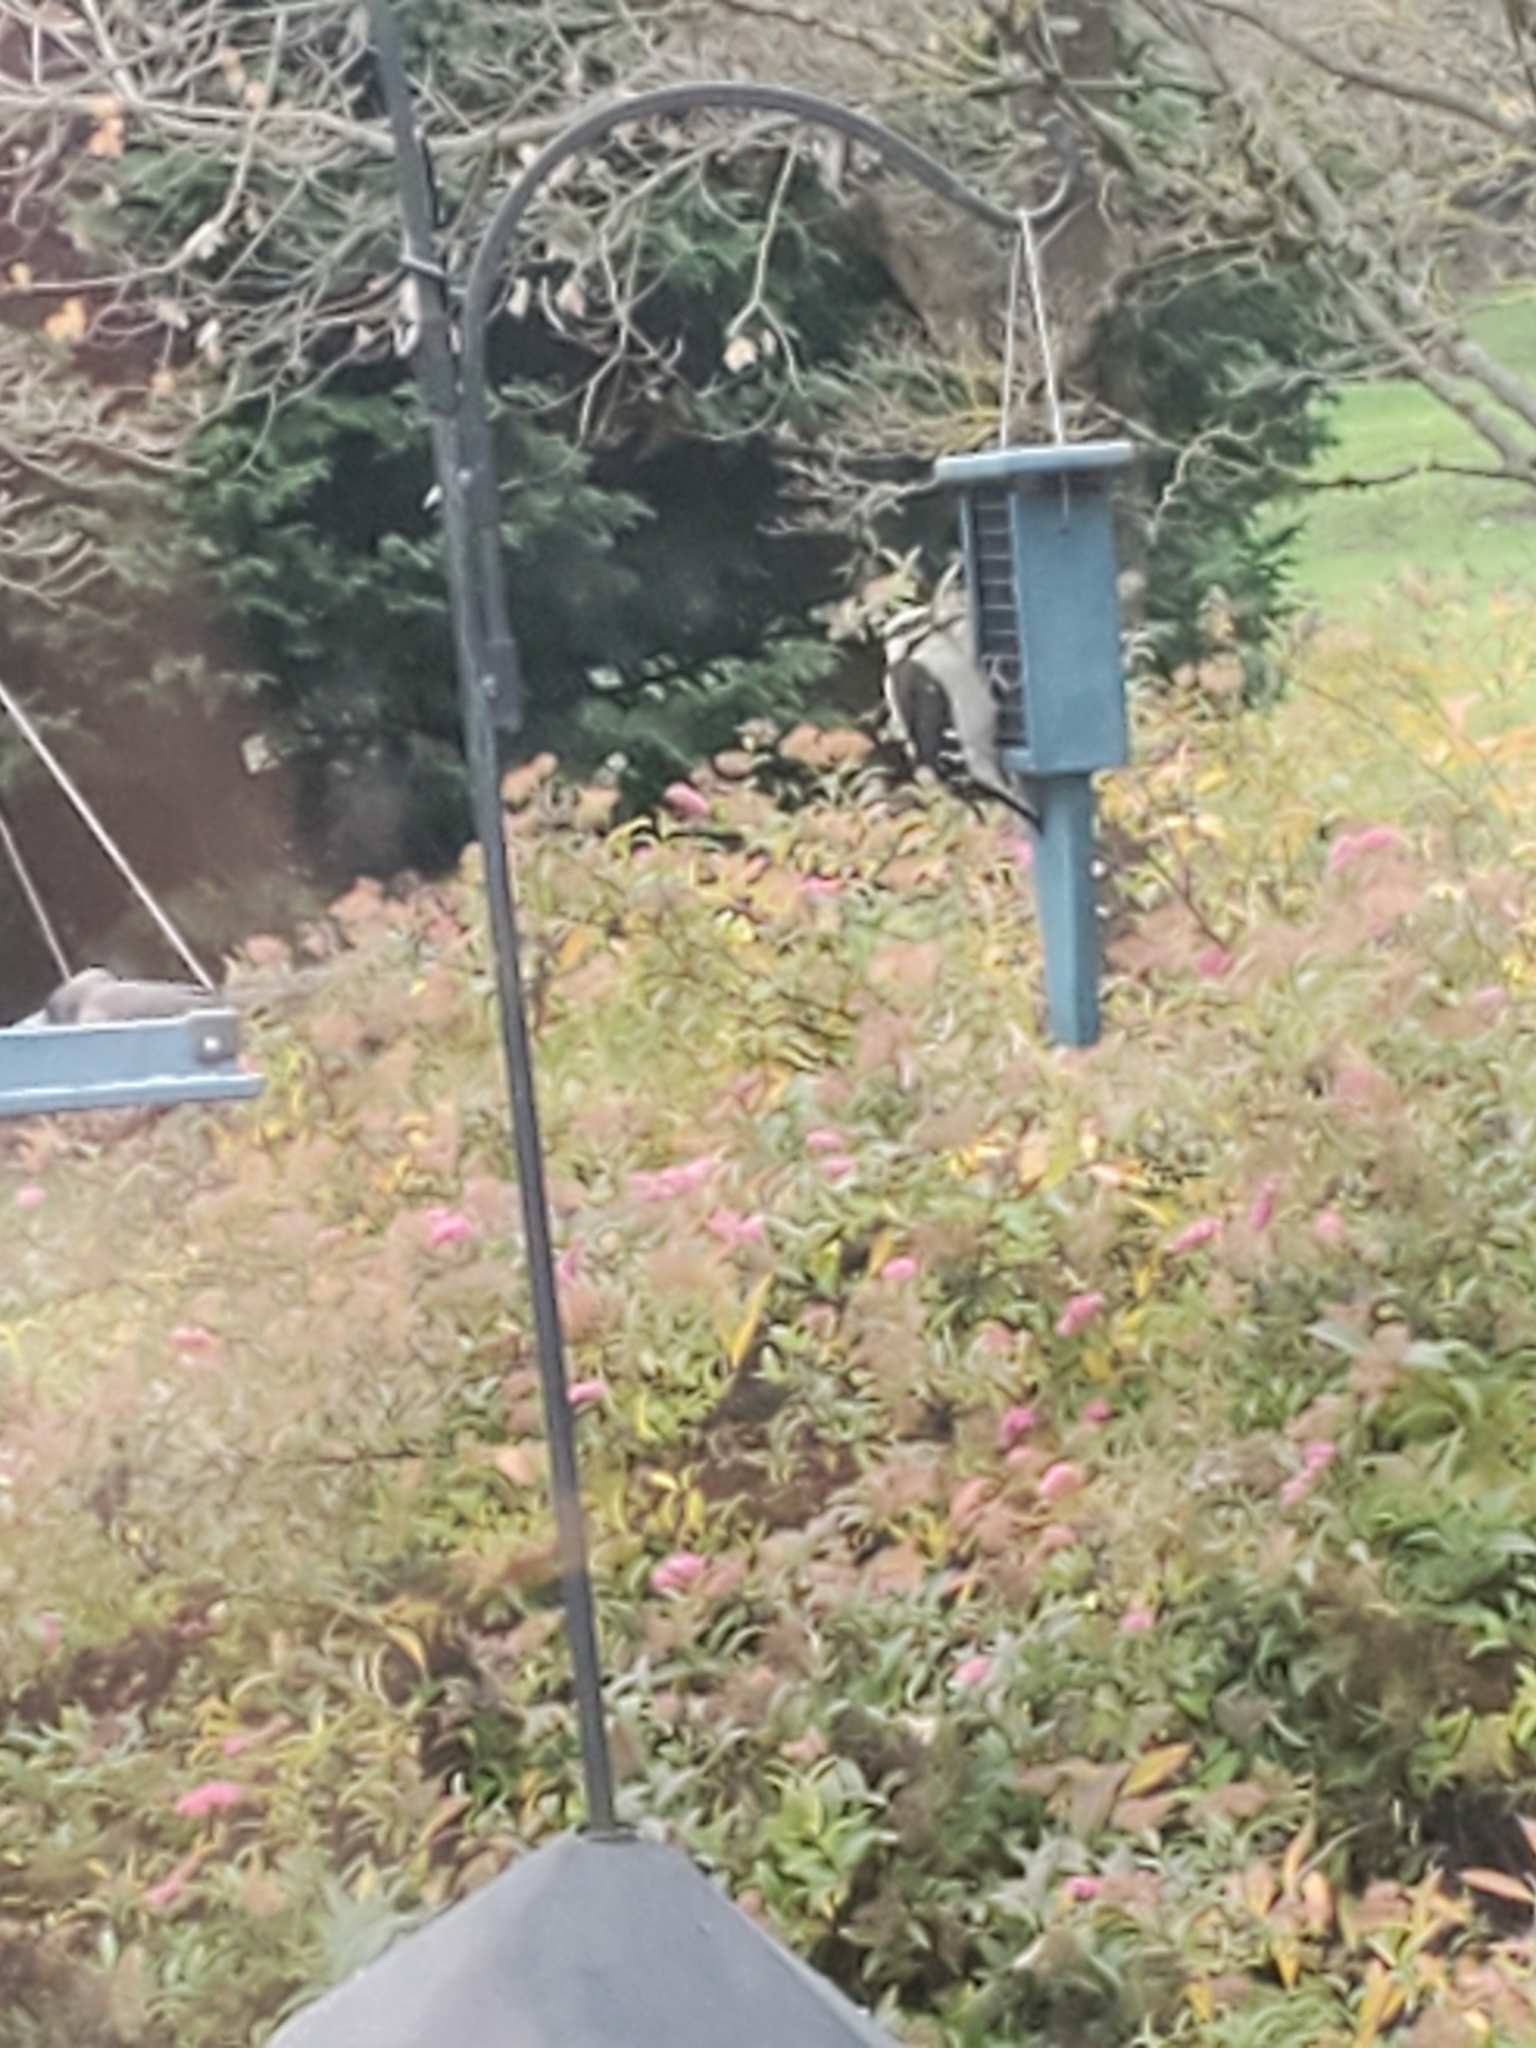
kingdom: Animalia
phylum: Chordata
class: Aves
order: Piciformes
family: Picidae
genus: Dryobates
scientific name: Dryobates pubescens
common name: Downy woodpecker
